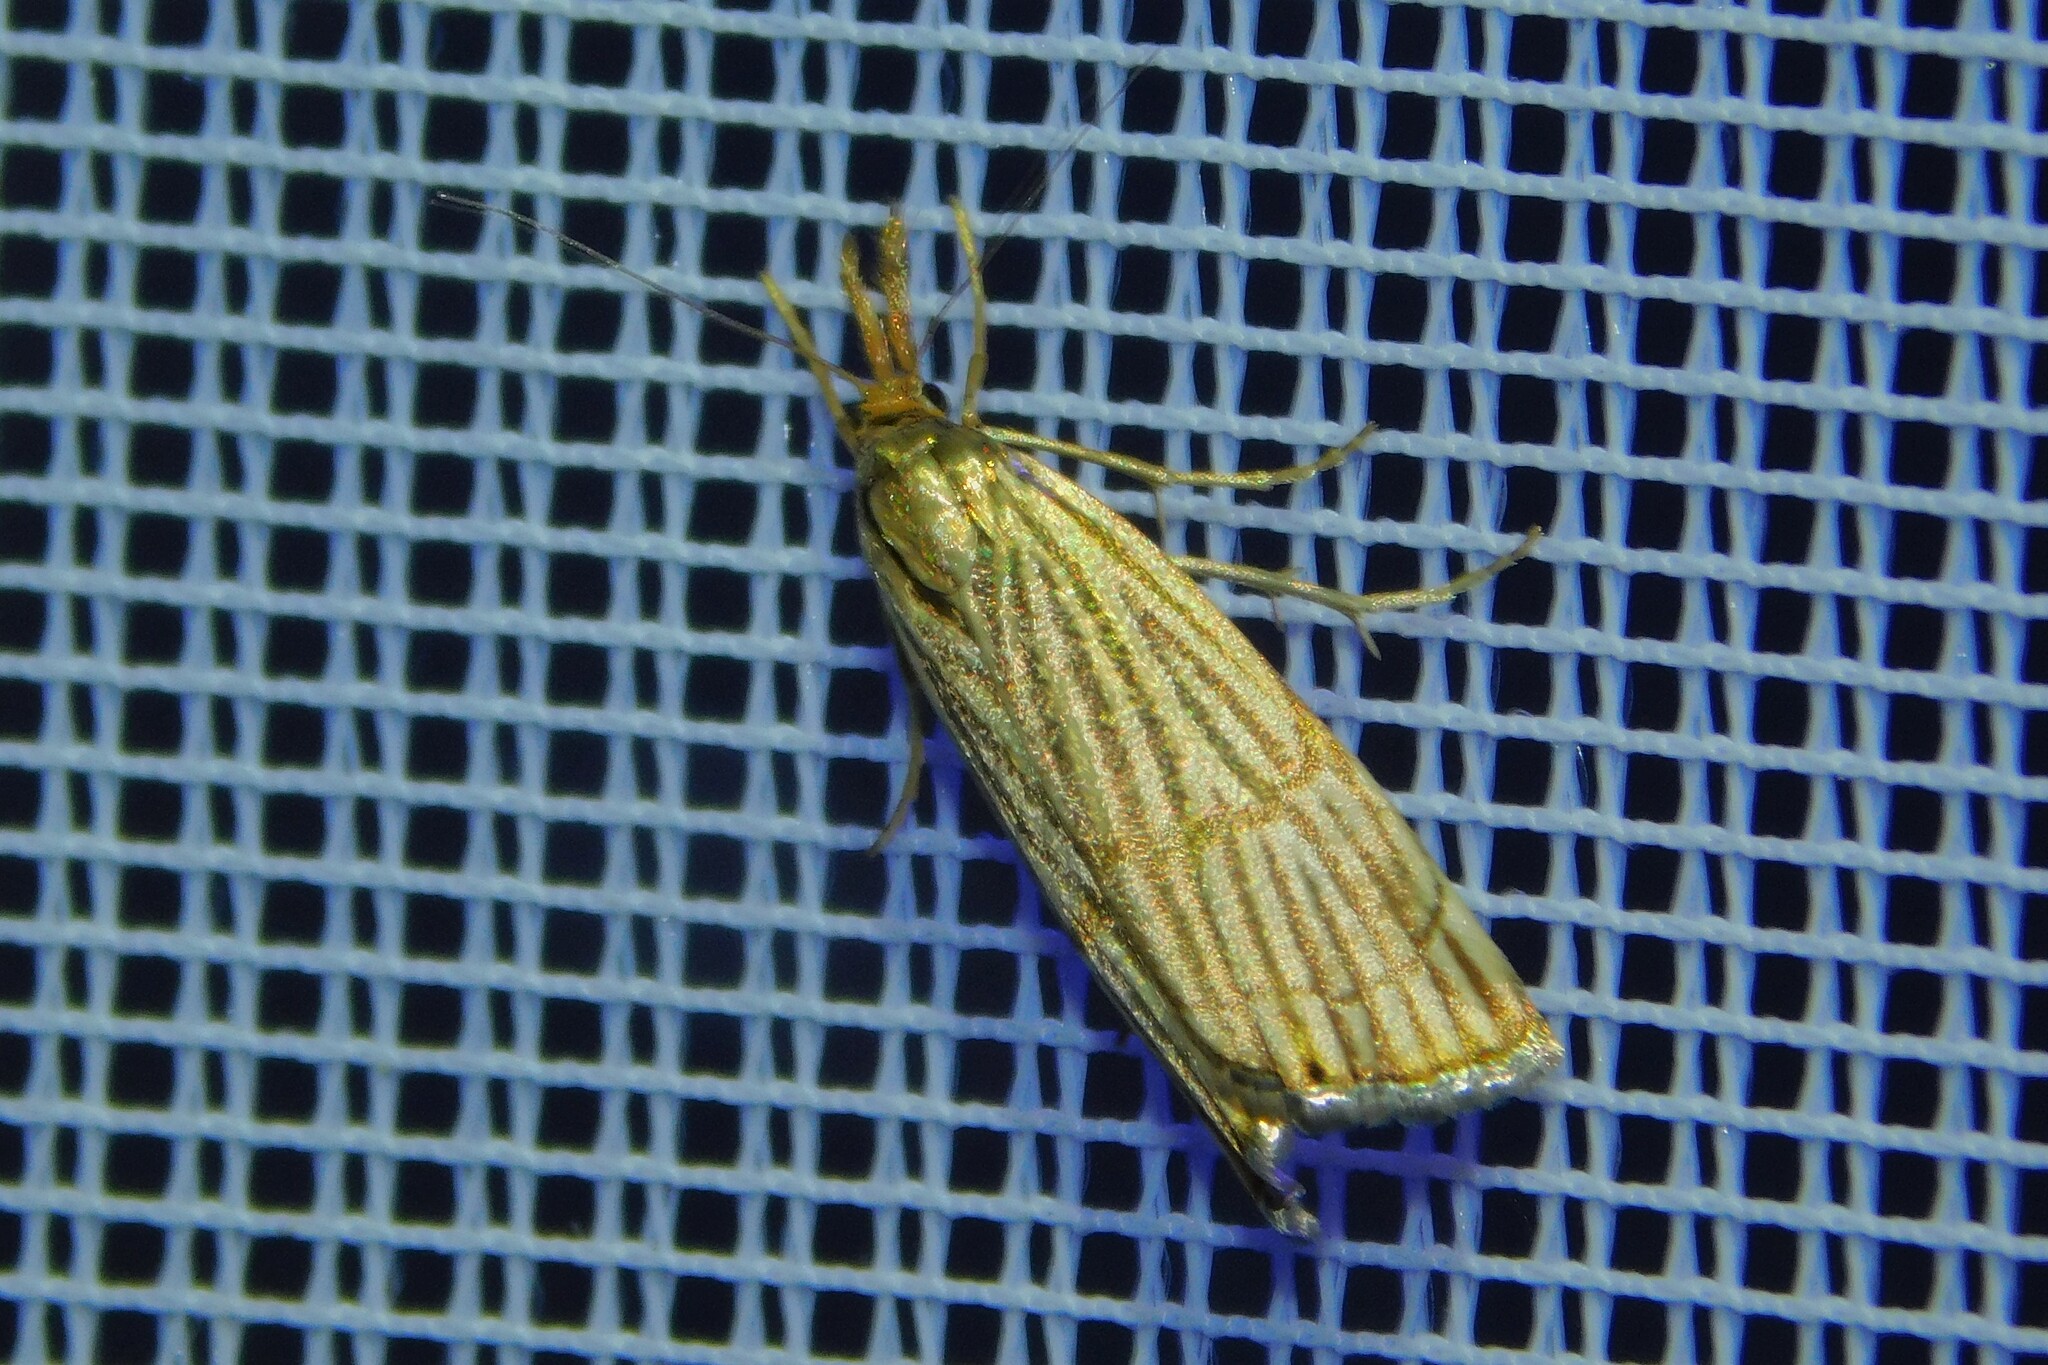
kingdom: Animalia
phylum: Arthropoda
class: Insecta
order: Lepidoptera
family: Crambidae
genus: Chrysocrambus
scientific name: Chrysocrambus linetella
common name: Orange-bar grass-veneer
